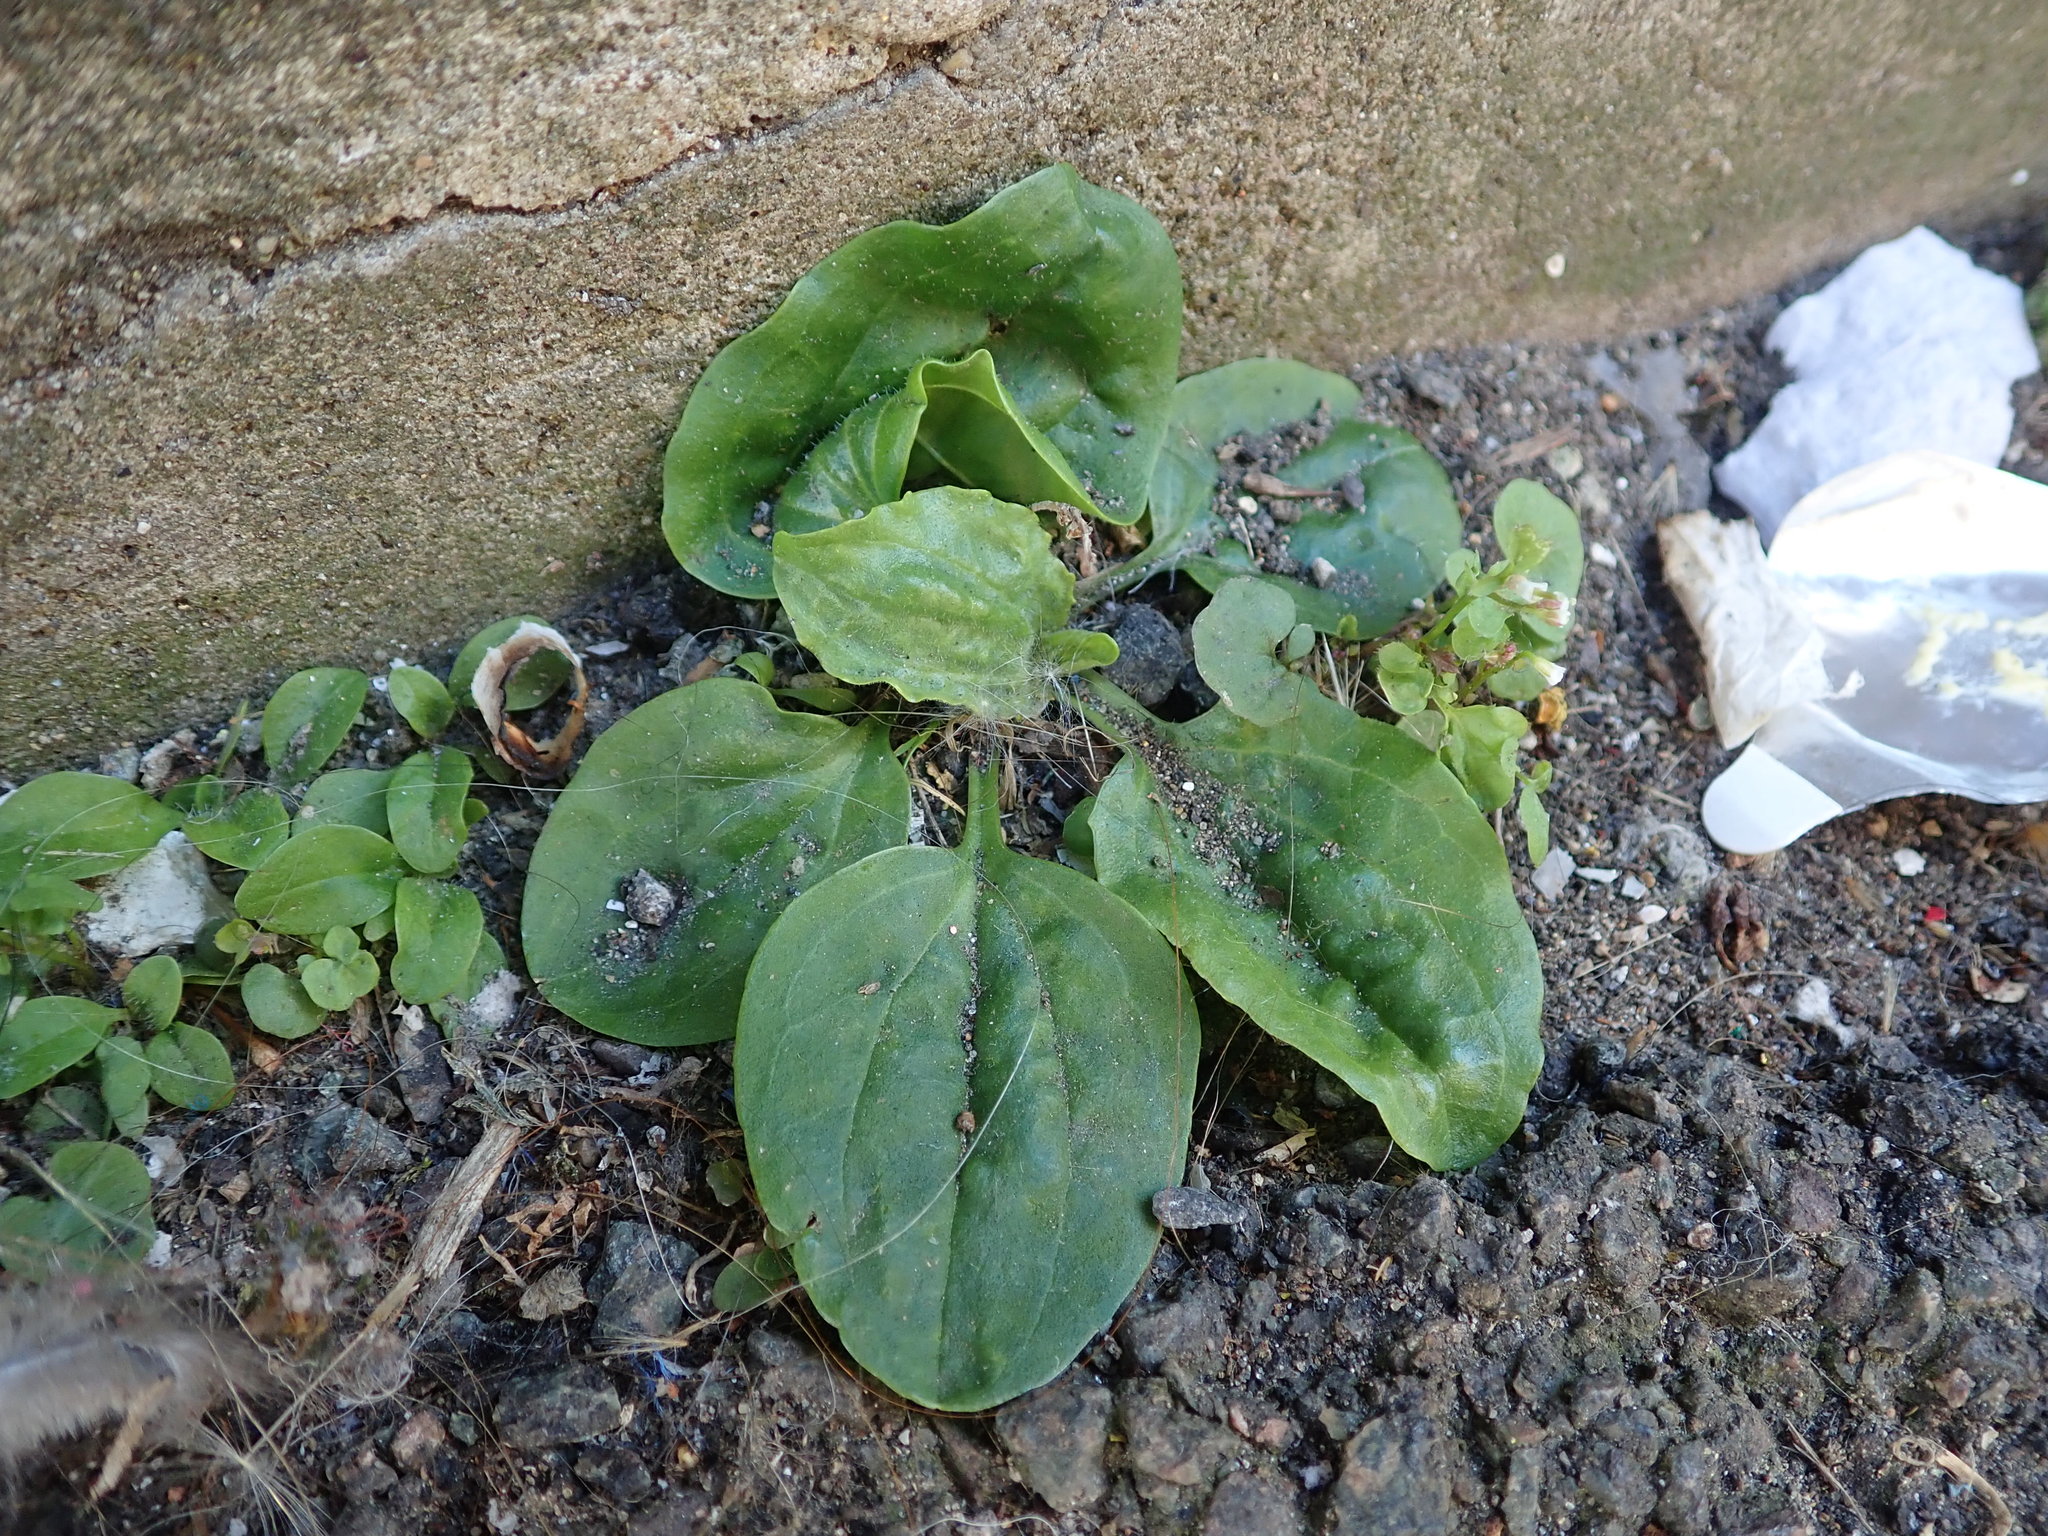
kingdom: Plantae
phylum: Tracheophyta
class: Magnoliopsida
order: Lamiales
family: Plantaginaceae
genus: Plantago
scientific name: Plantago major
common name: Common plantain
